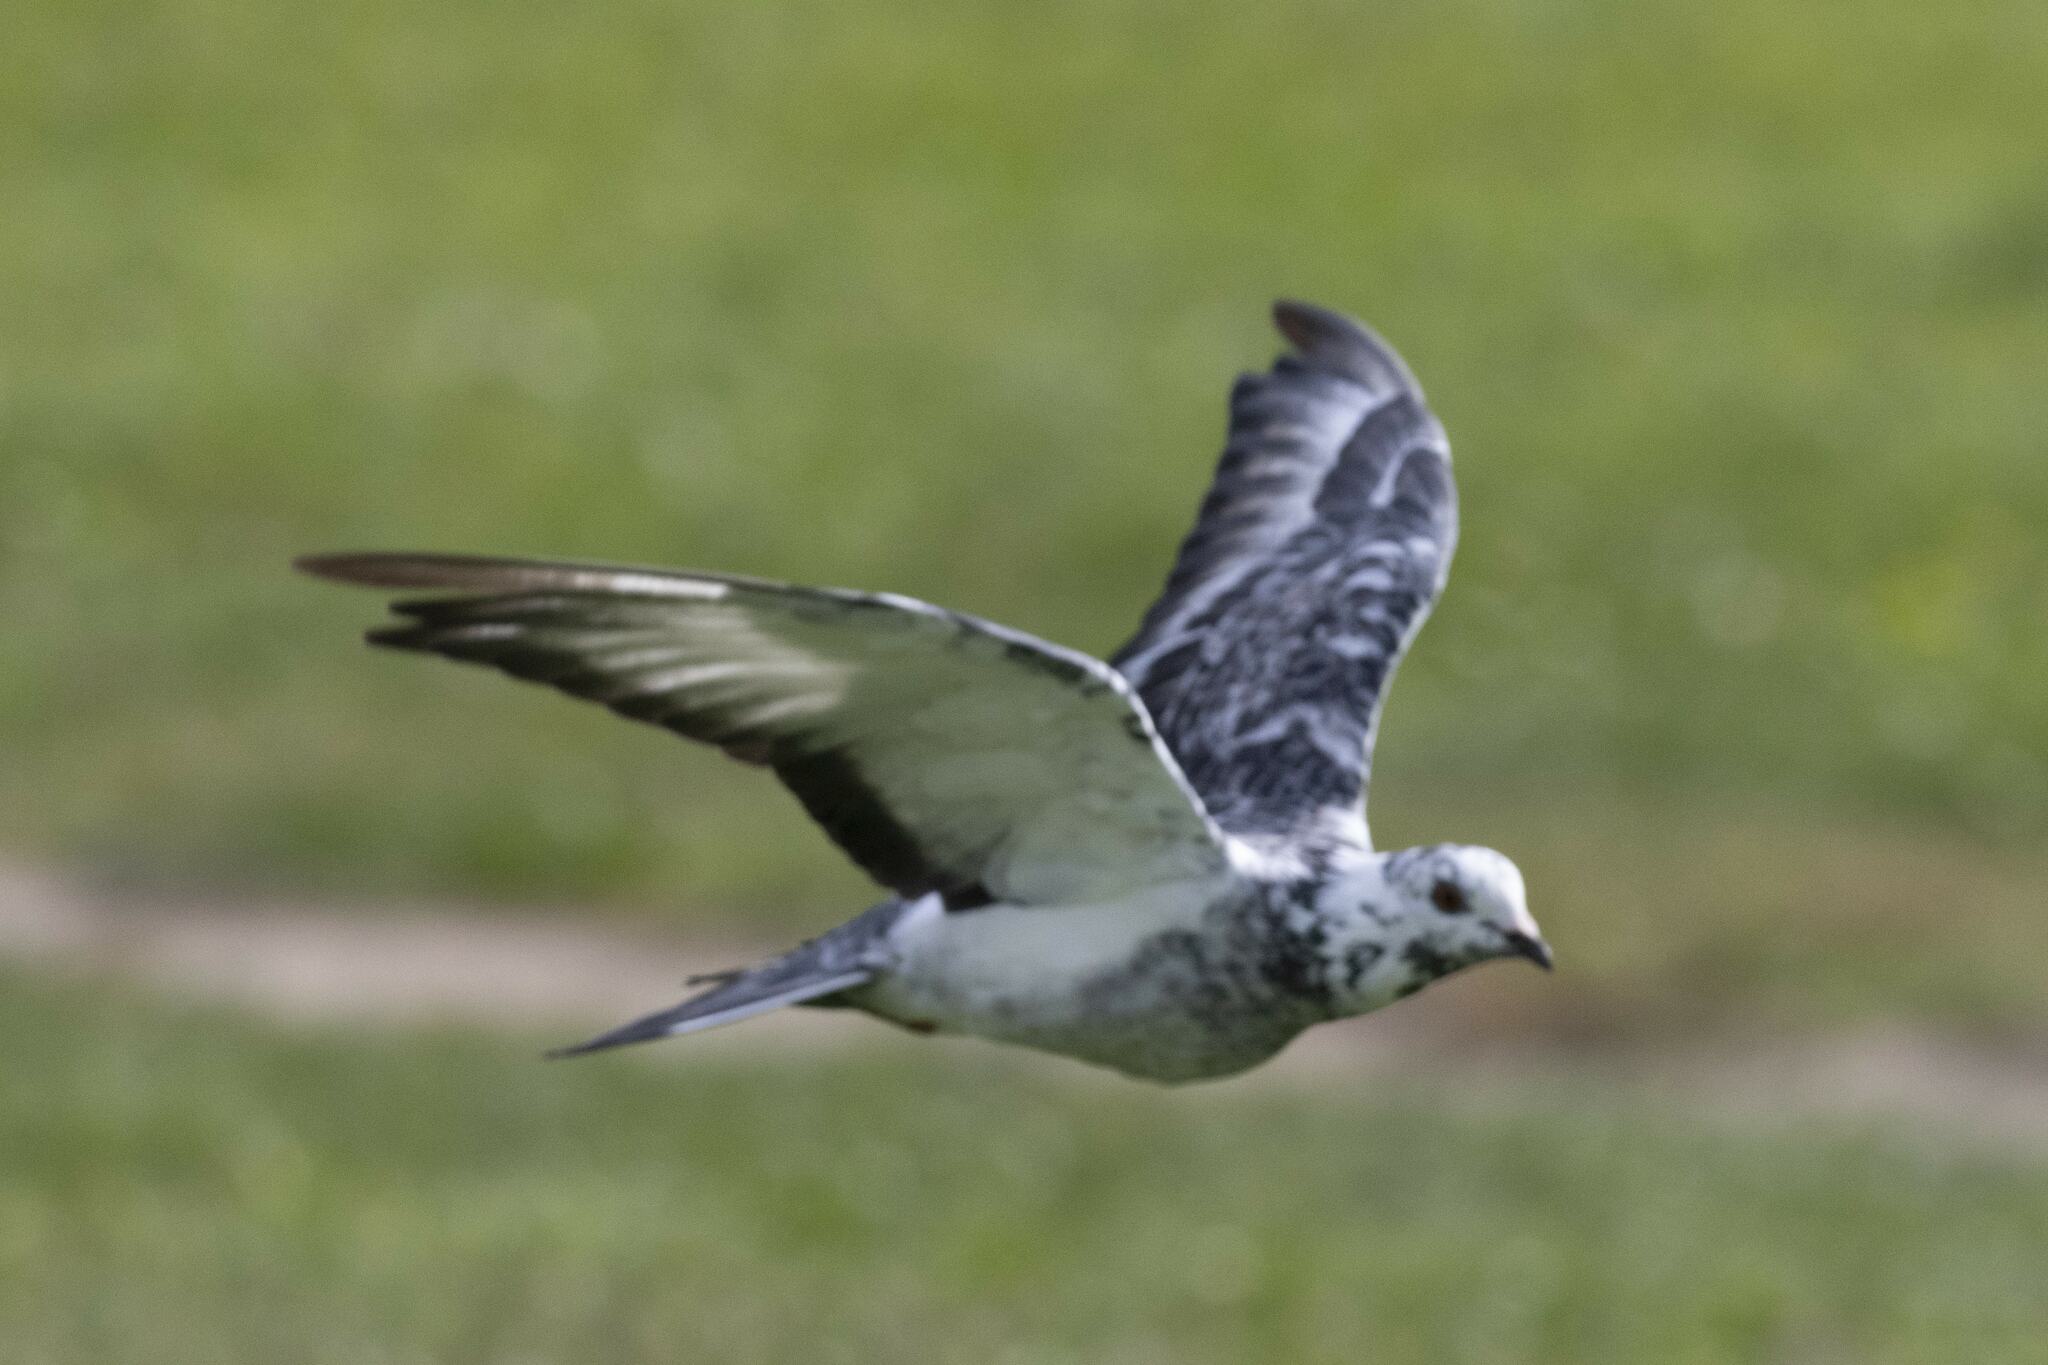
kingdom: Animalia
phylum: Chordata
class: Aves
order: Columbiformes
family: Columbidae
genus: Columba
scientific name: Columba livia
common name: Rock pigeon
